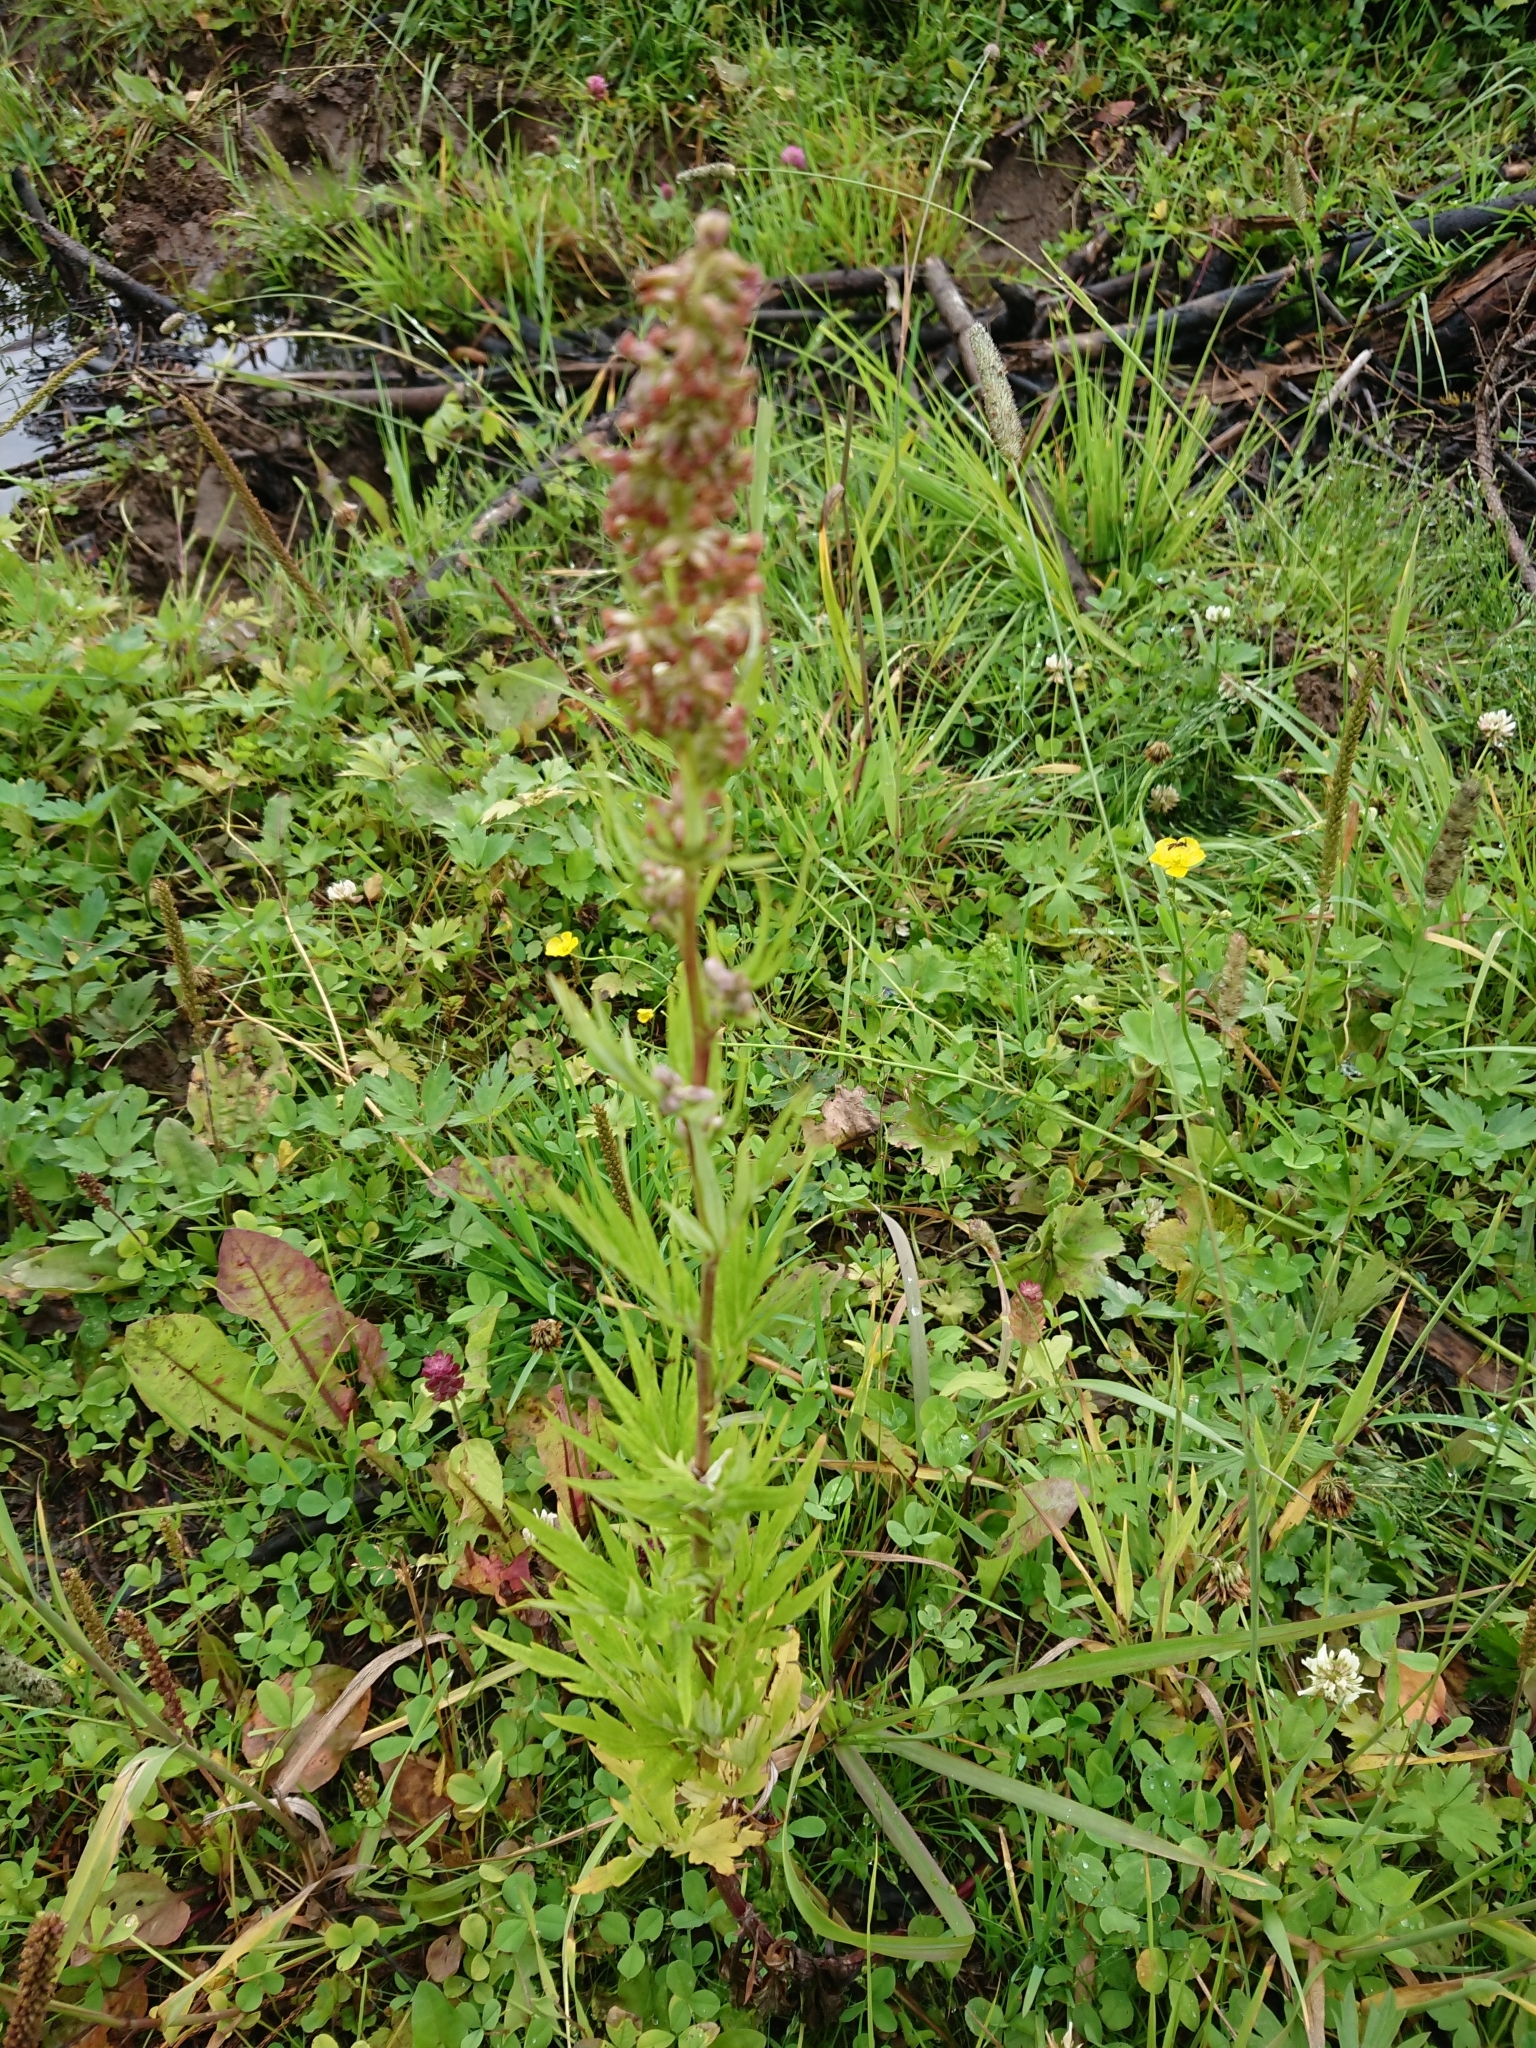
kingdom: Plantae
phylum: Tracheophyta
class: Magnoliopsida
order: Asterales
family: Asteraceae
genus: Artemisia
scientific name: Artemisia vulgaris
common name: Mugwort
